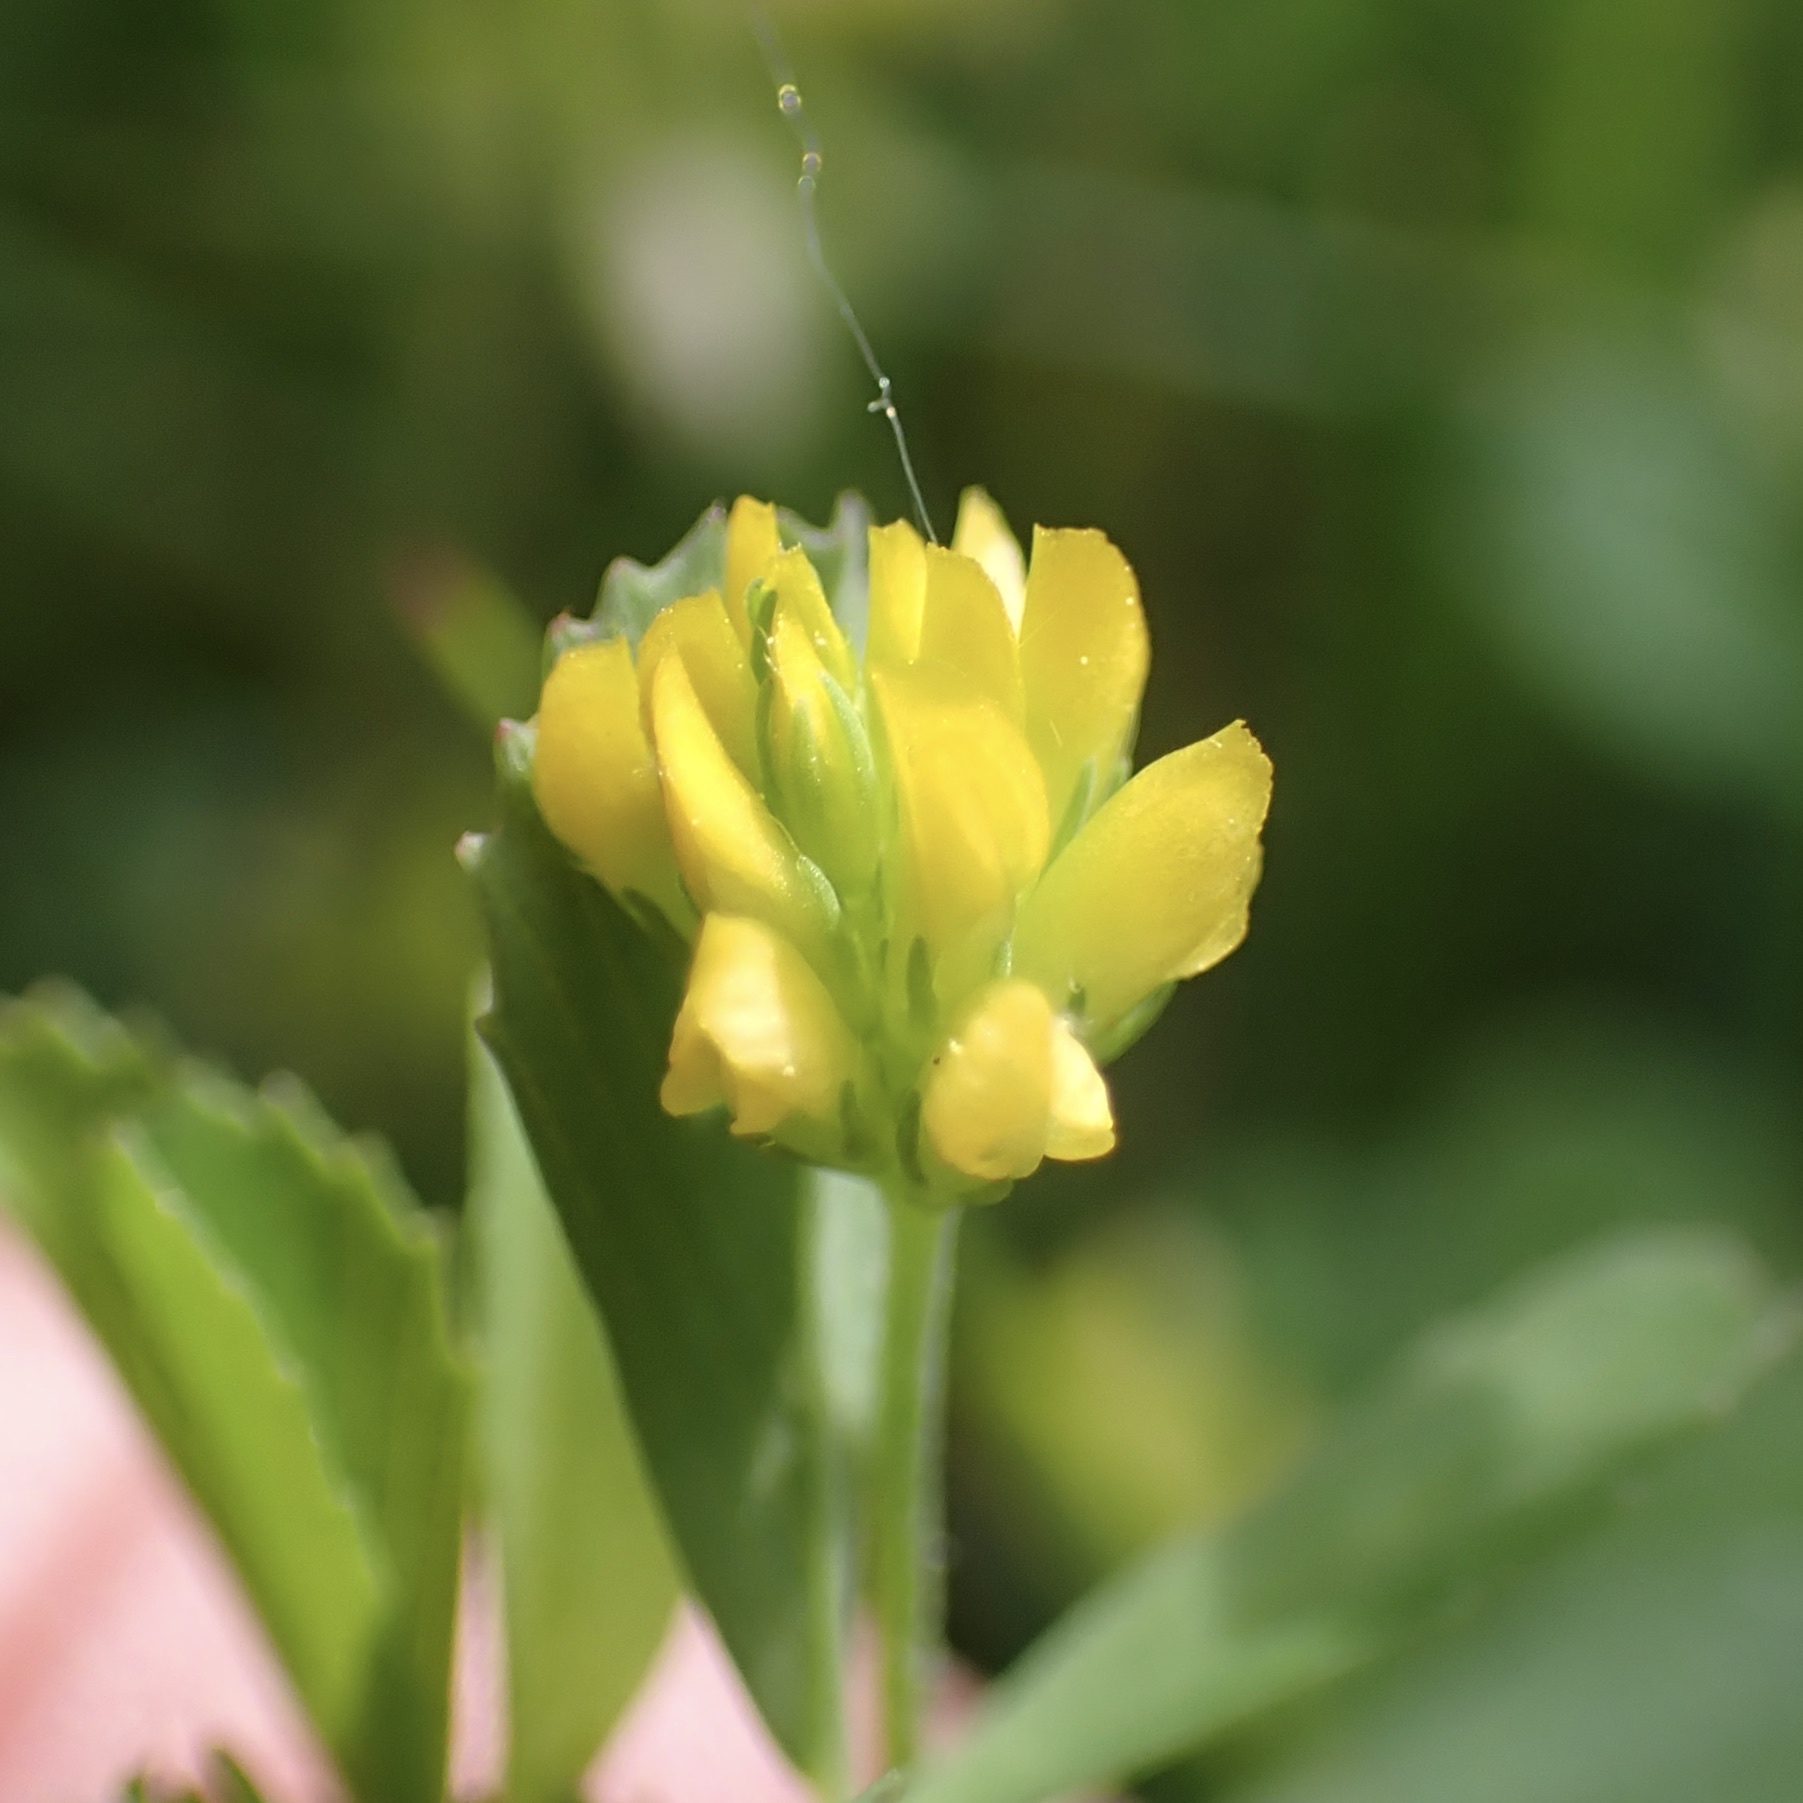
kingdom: Plantae
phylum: Tracheophyta
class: Magnoliopsida
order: Fabales
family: Fabaceae
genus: Trifolium
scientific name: Trifolium dubium
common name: Suckling clover
